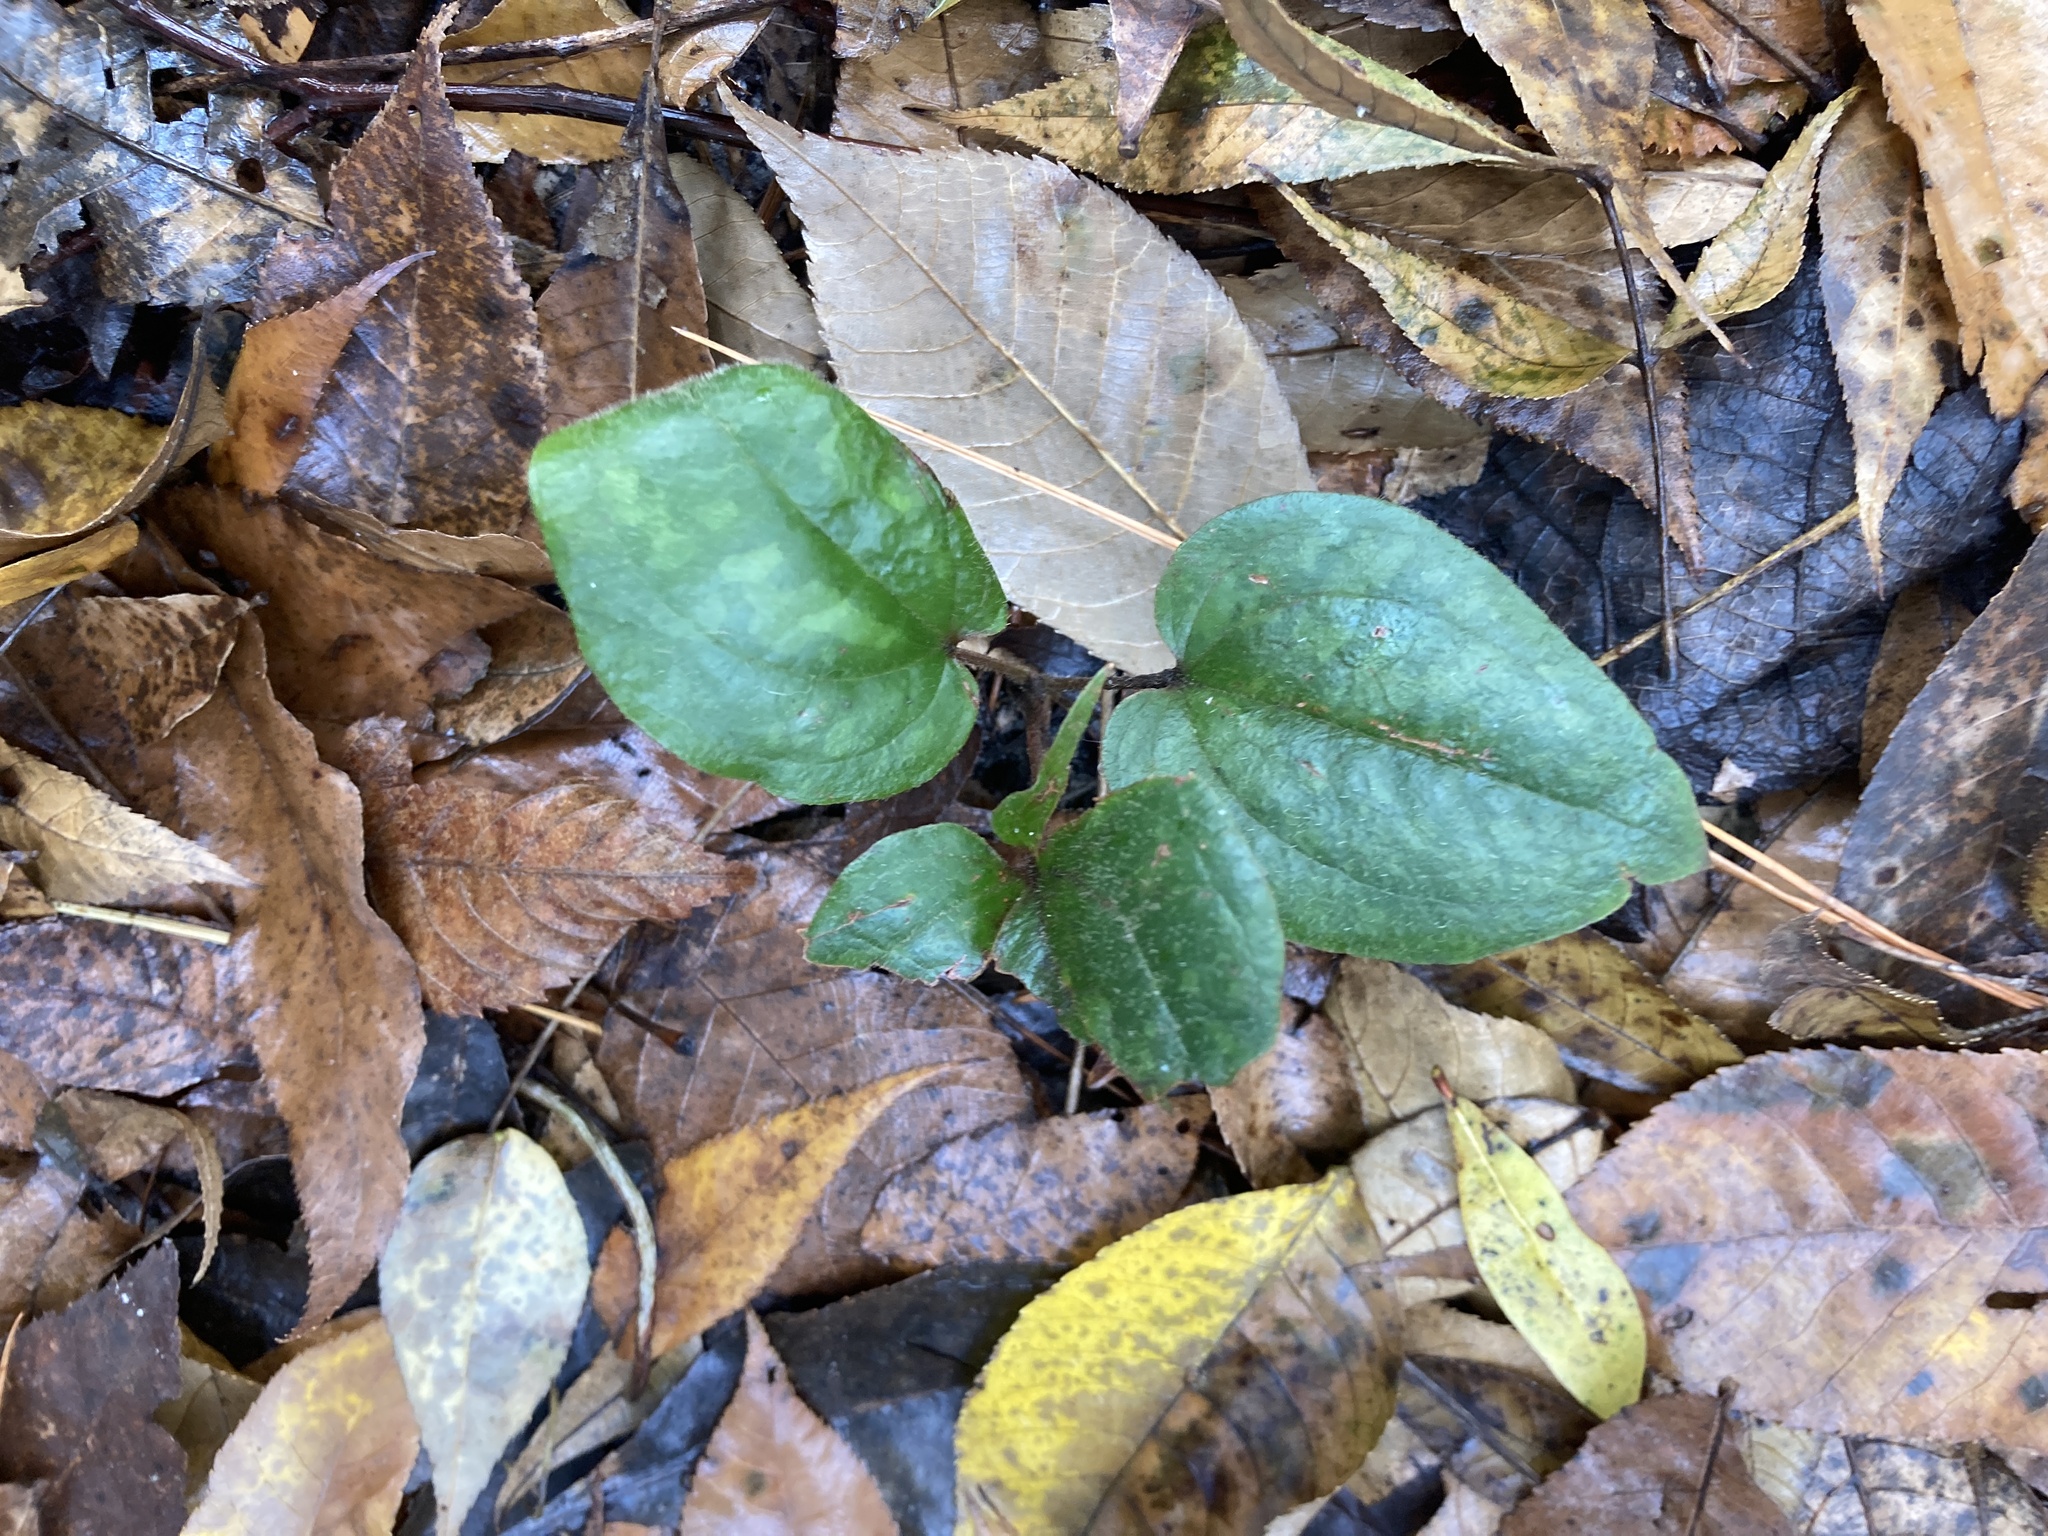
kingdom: Plantae
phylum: Tracheophyta
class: Liliopsida
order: Liliales
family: Smilacaceae
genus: Smilax
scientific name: Smilax pumila
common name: Sarsaparilla-vine
